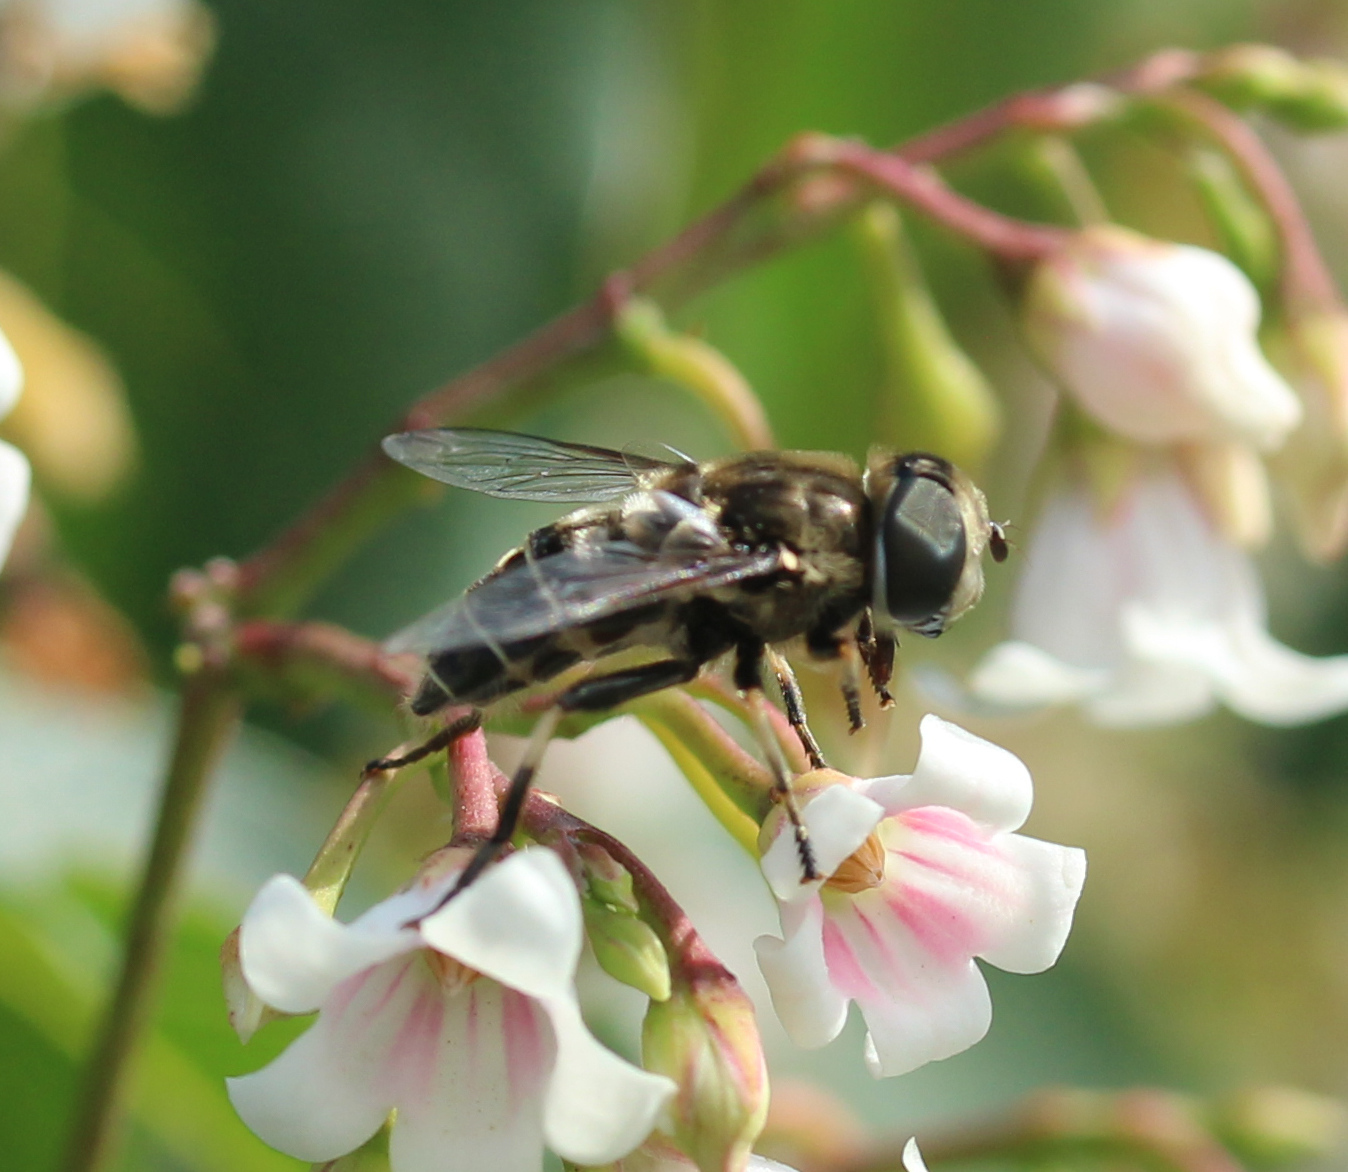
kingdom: Animalia
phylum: Arthropoda
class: Insecta
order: Diptera
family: Syrphidae
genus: Eristalis
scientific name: Eristalis dimidiata
